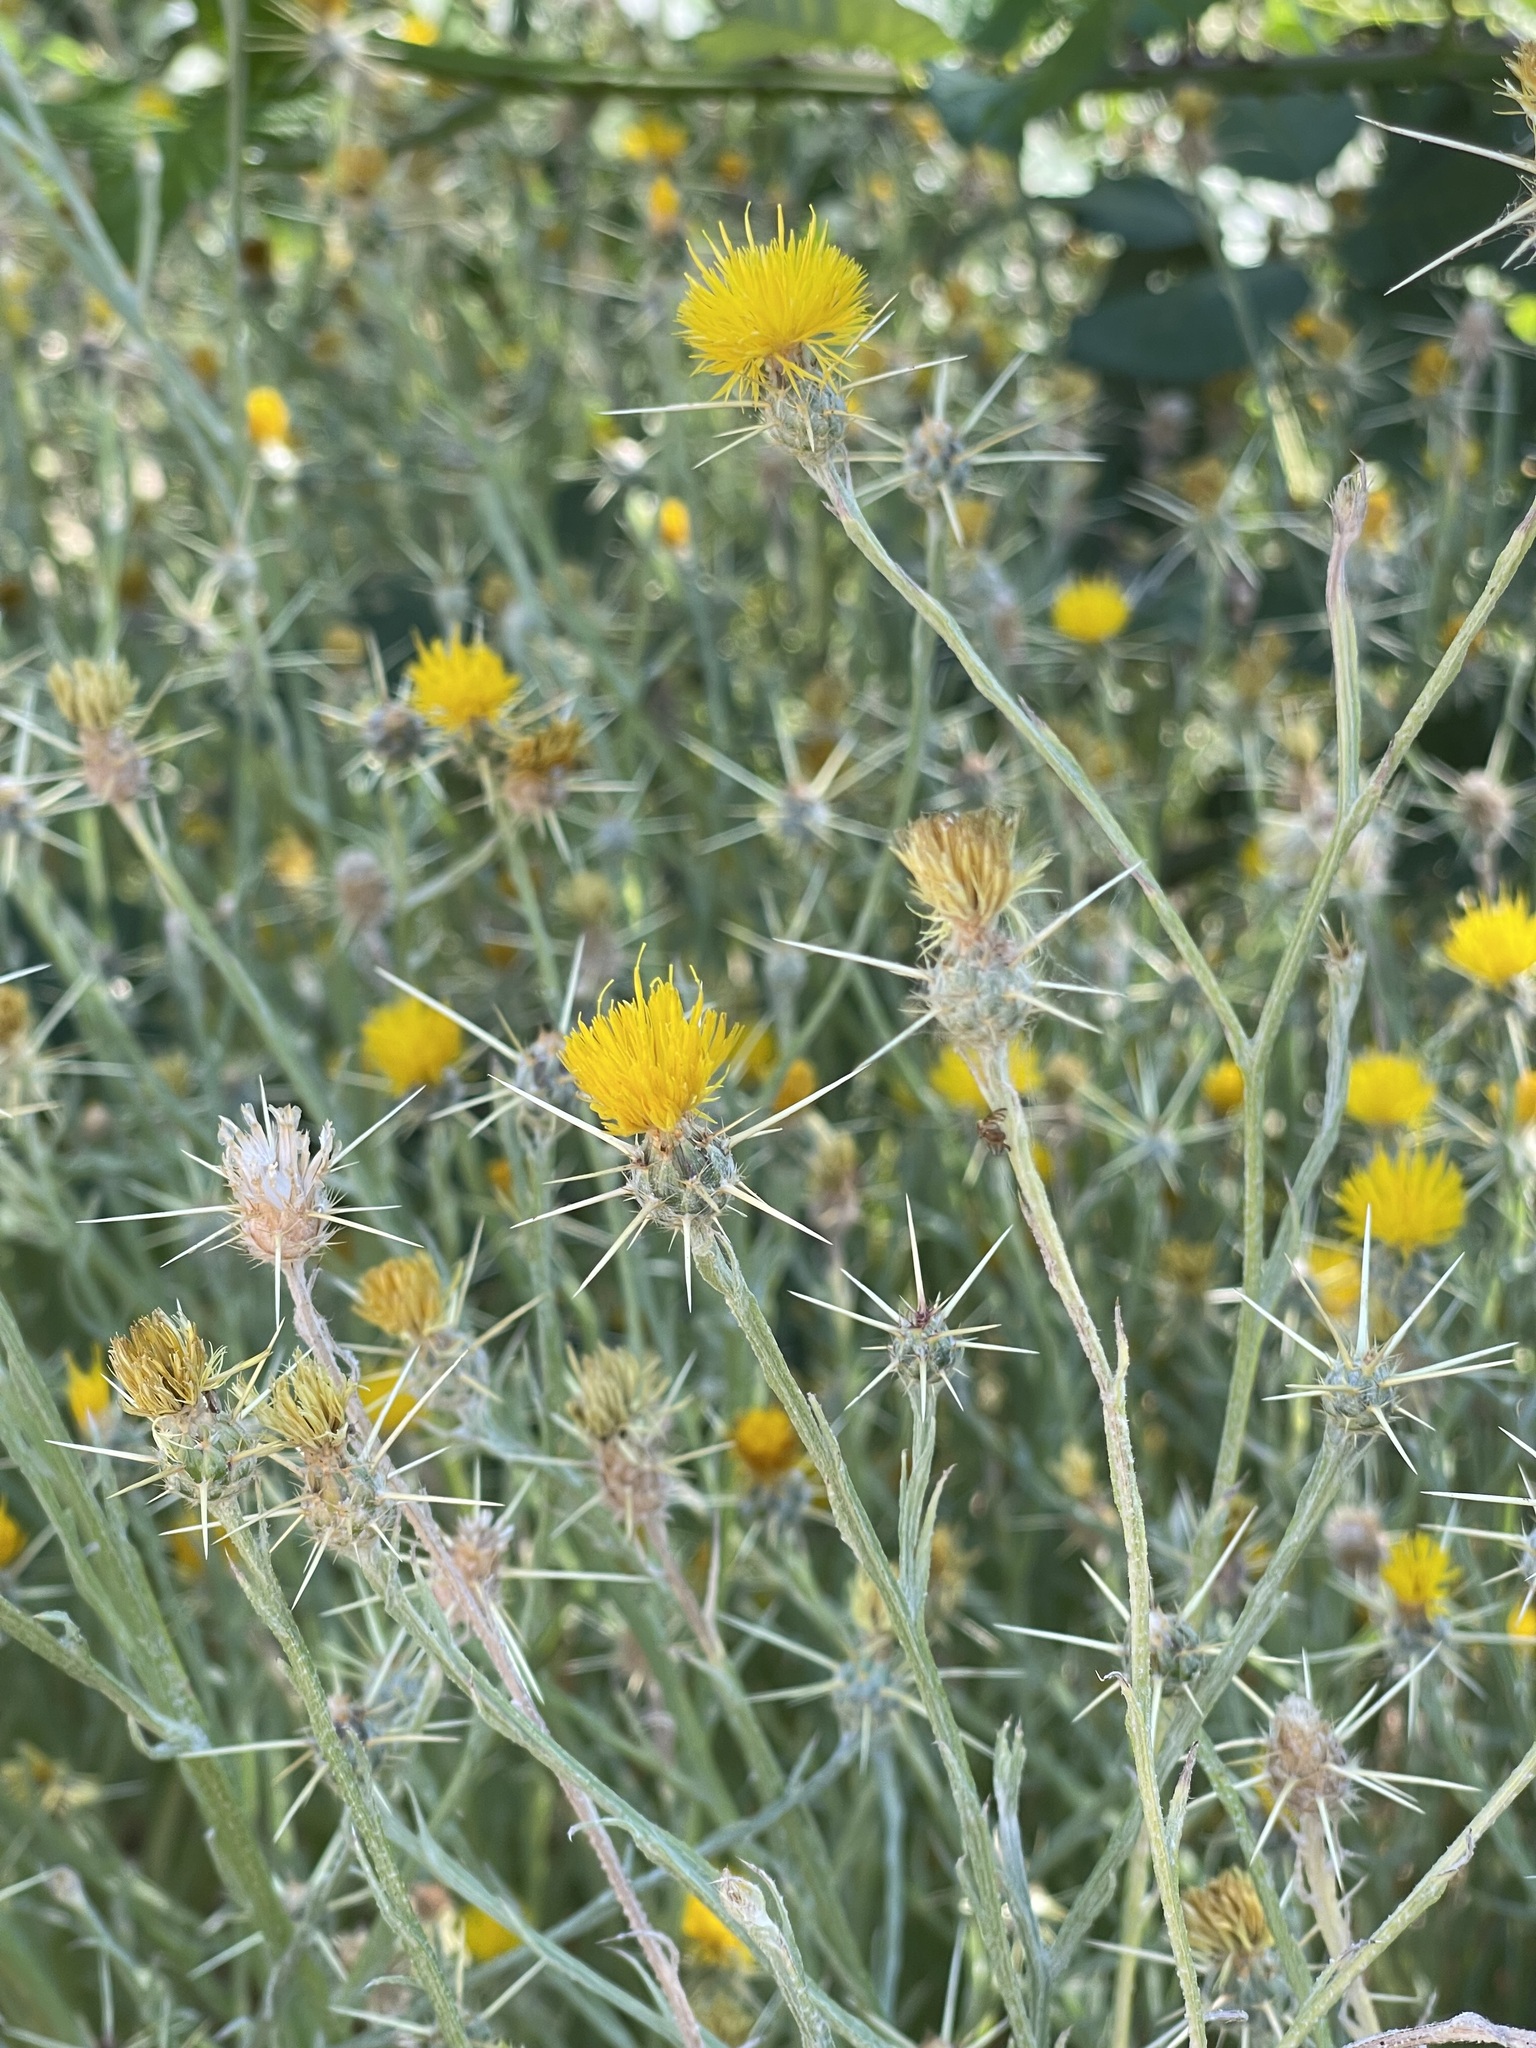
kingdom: Plantae
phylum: Tracheophyta
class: Magnoliopsida
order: Asterales
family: Asteraceae
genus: Centaurea
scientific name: Centaurea solstitialis
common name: Yellow star-thistle
